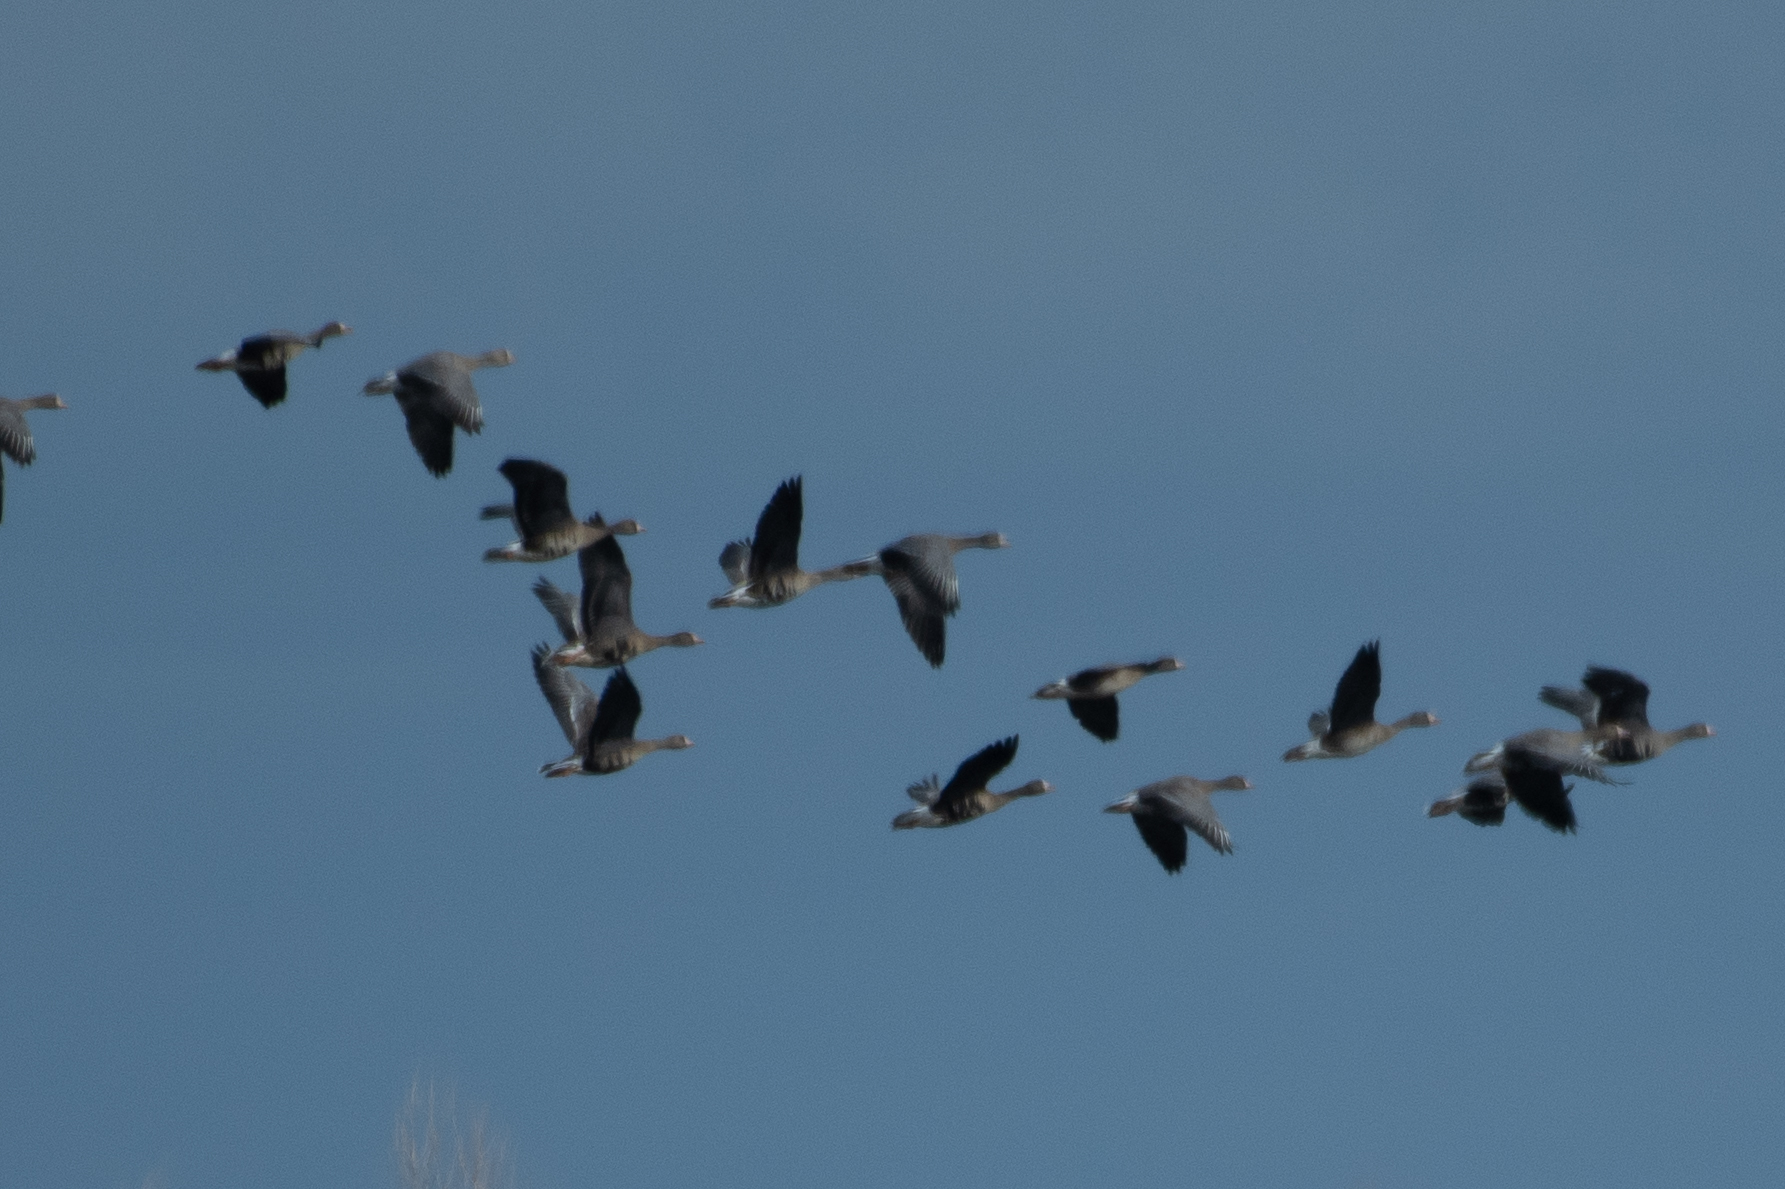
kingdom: Animalia
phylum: Chordata
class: Aves
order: Anseriformes
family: Anatidae
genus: Anser
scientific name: Anser albifrons
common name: Greater white-fronted goose
